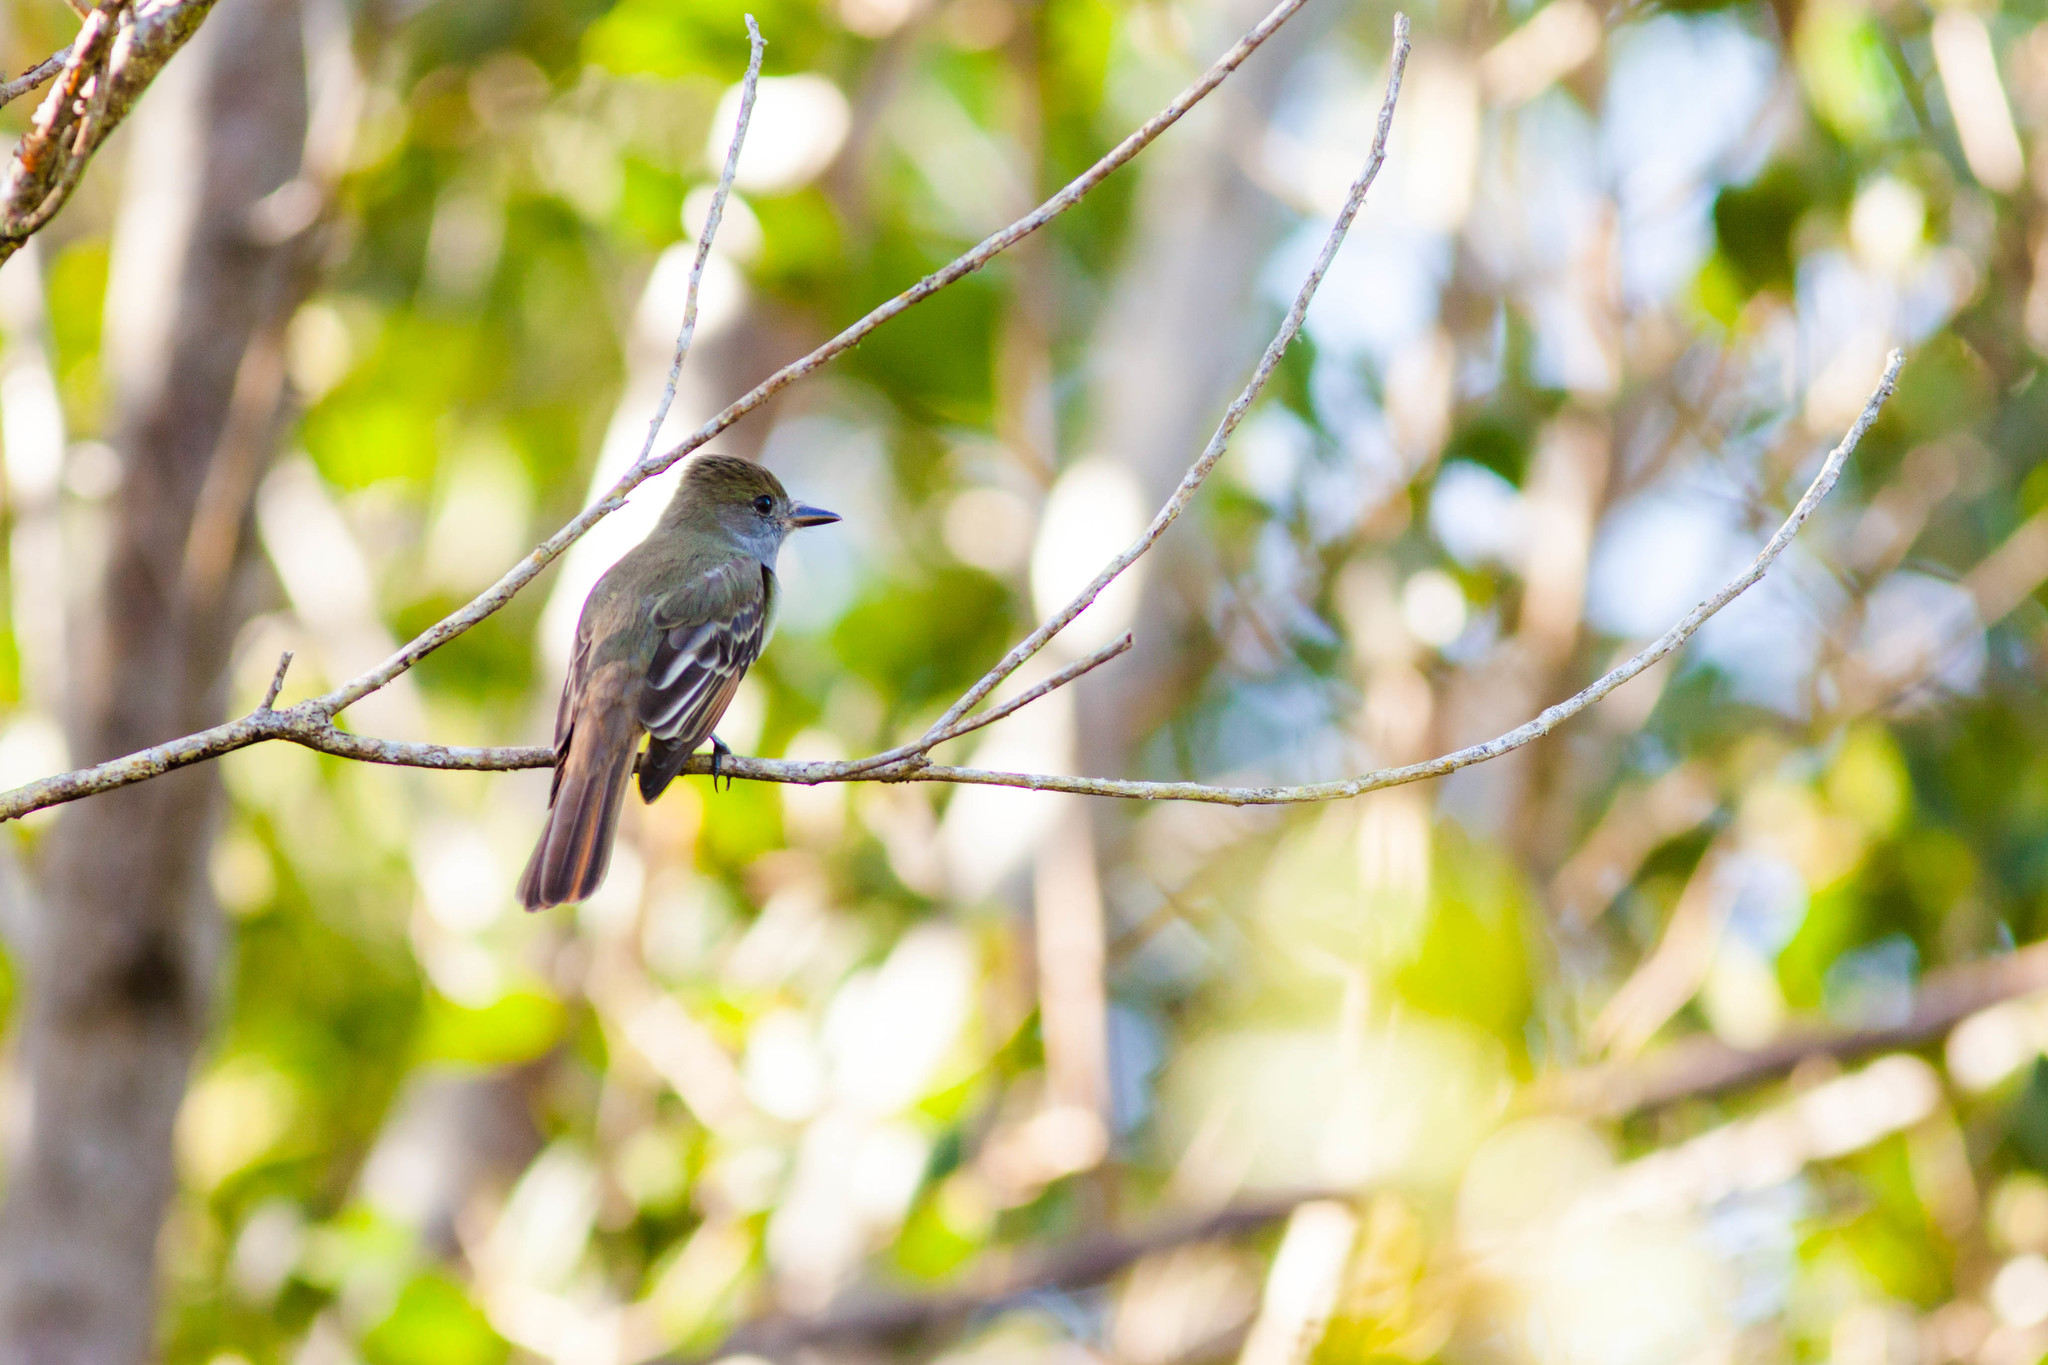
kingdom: Animalia
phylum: Chordata
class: Aves
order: Passeriformes
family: Tyrannidae
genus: Myiarchus
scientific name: Myiarchus crinitus
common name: Great crested flycatcher
